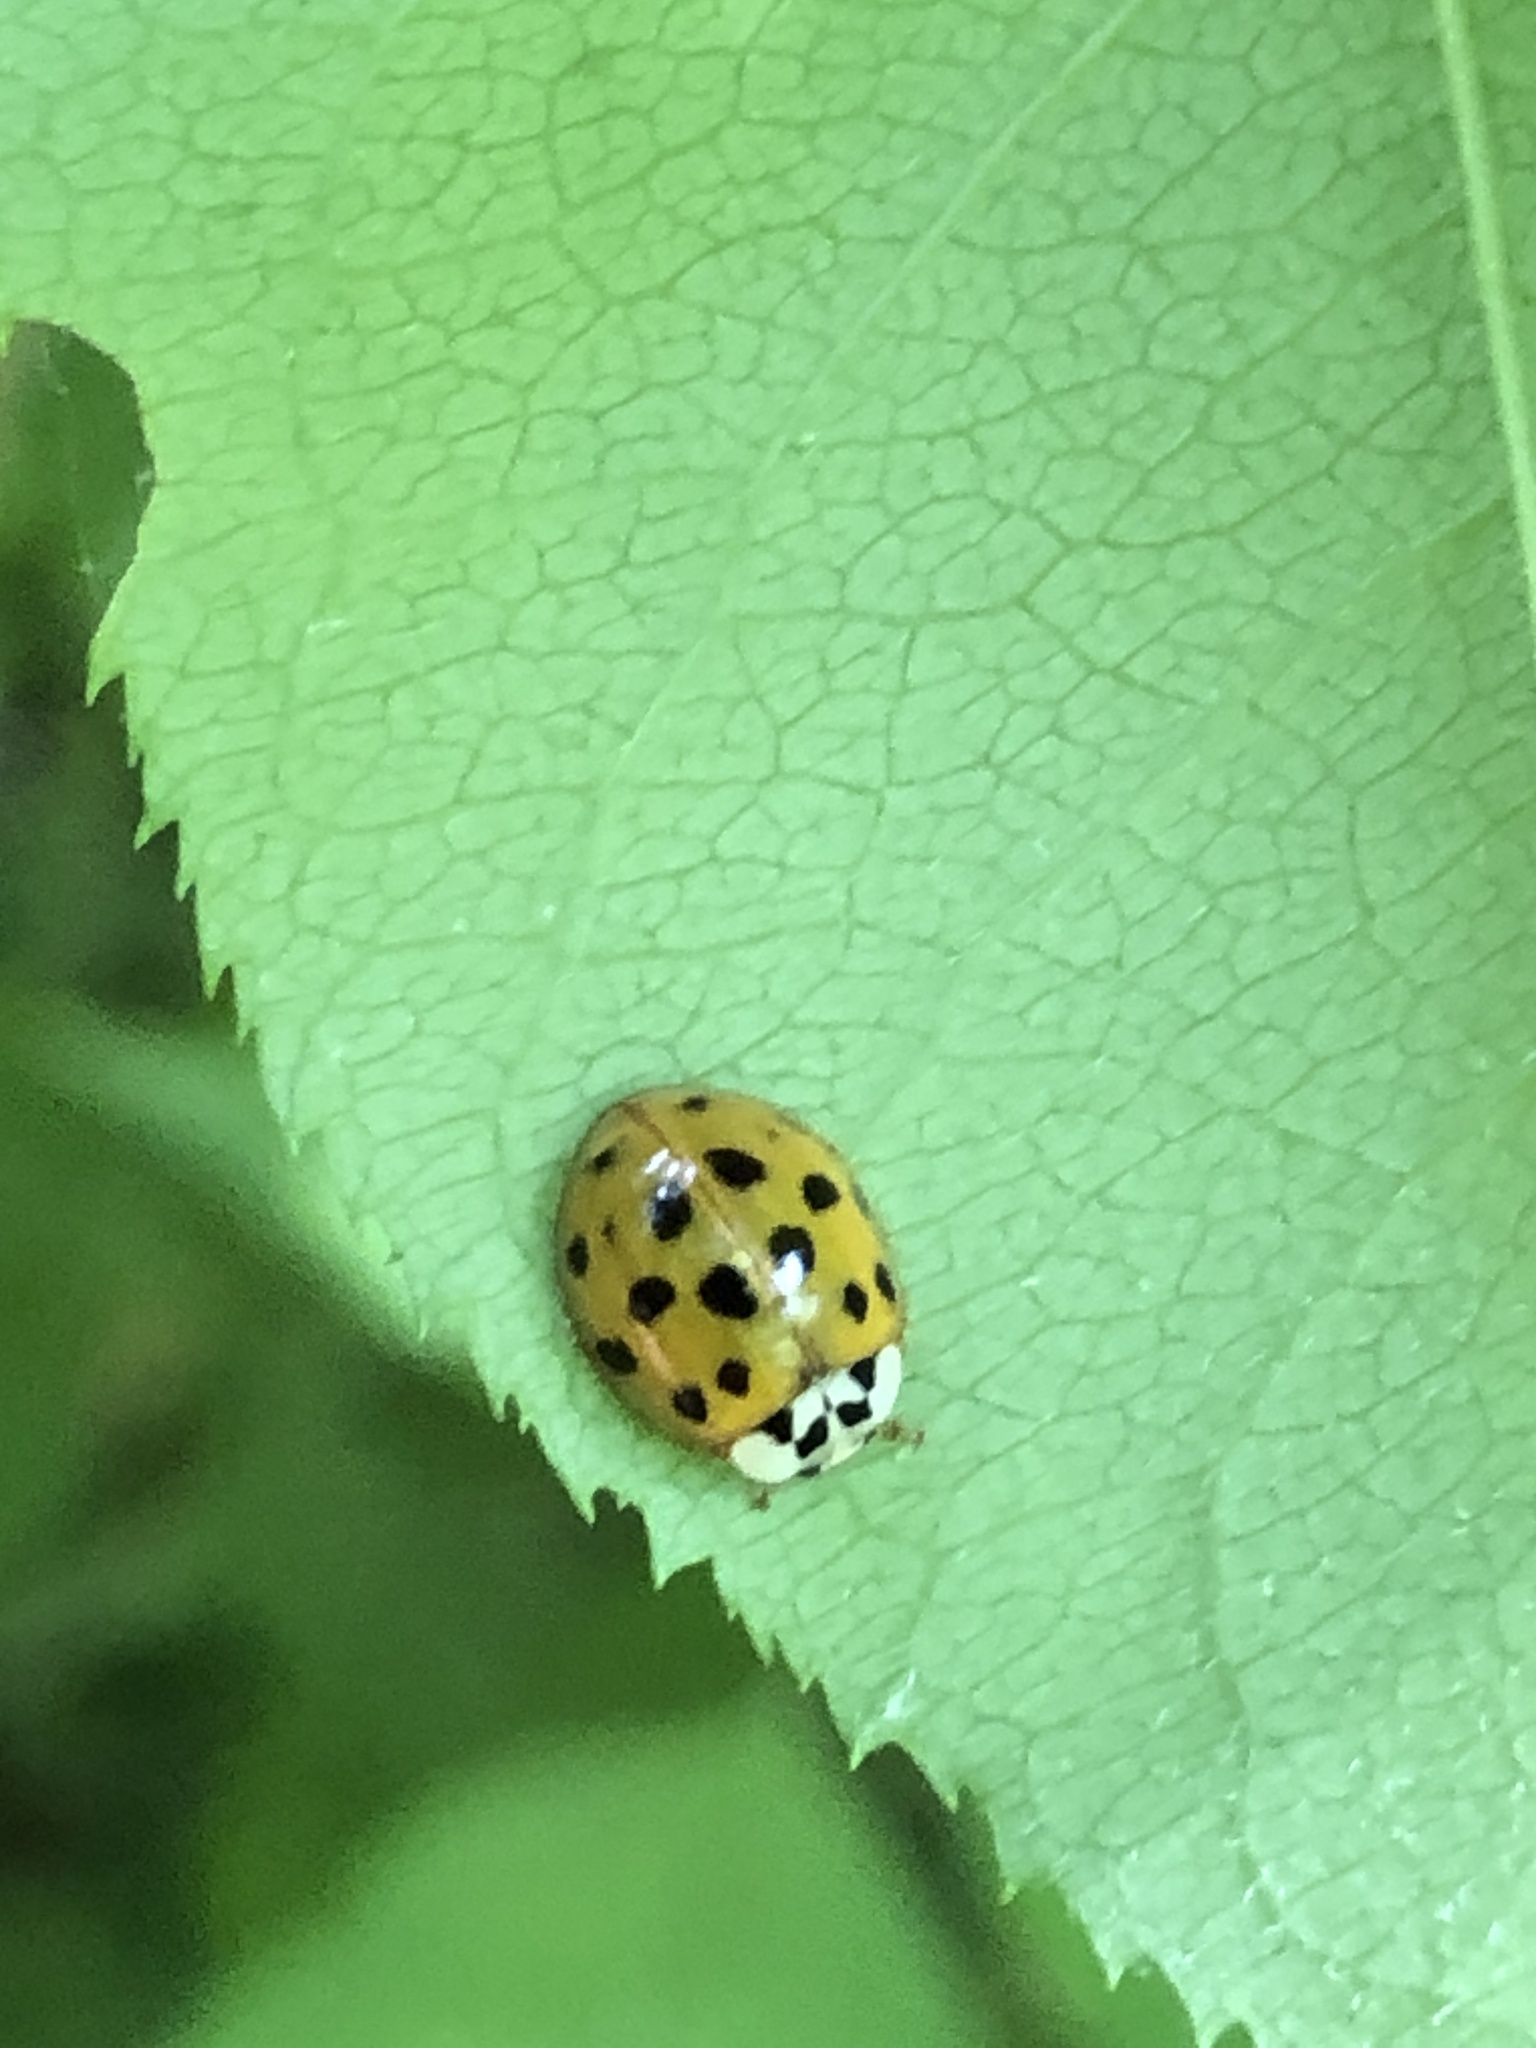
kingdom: Animalia
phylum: Arthropoda
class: Insecta
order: Coleoptera
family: Coccinellidae
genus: Harmonia
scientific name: Harmonia axyridis
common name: Harlequin ladybird
